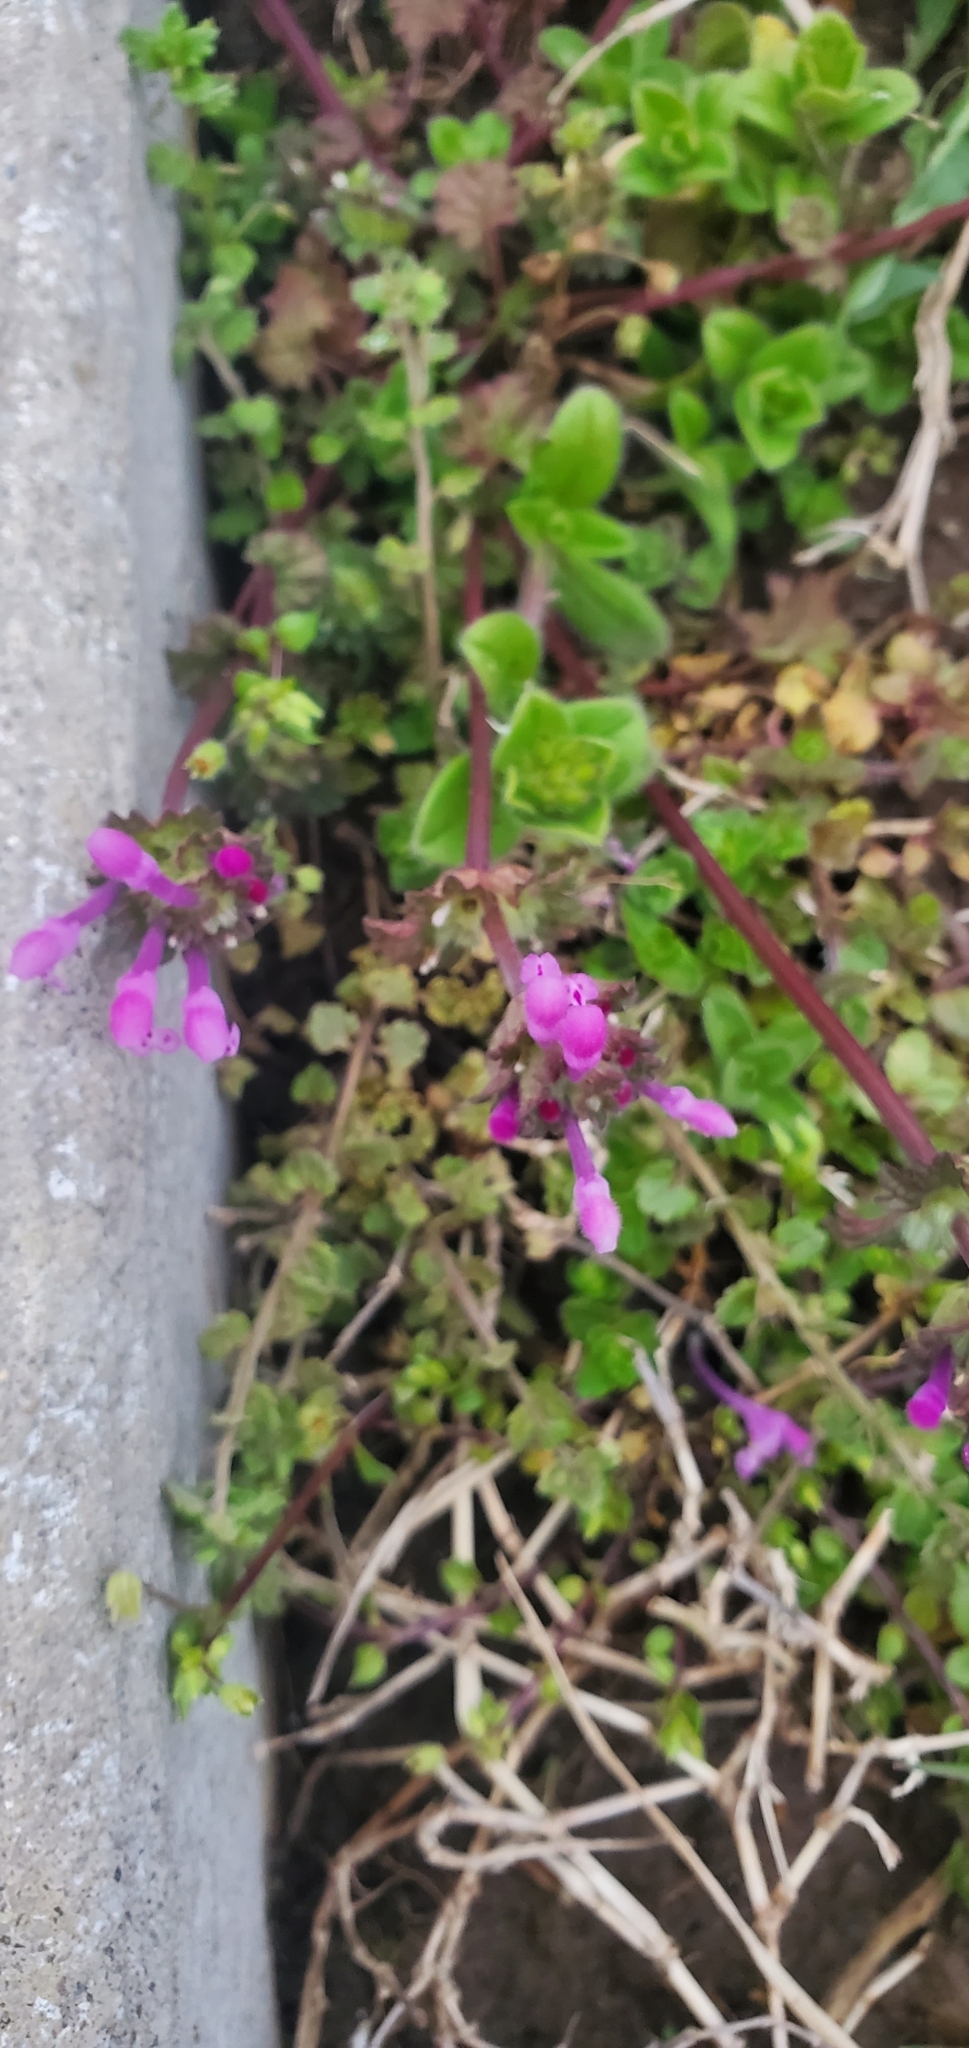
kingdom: Plantae
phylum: Tracheophyta
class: Magnoliopsida
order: Lamiales
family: Lamiaceae
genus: Lamium
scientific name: Lamium amplexicaule
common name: Henbit dead-nettle
